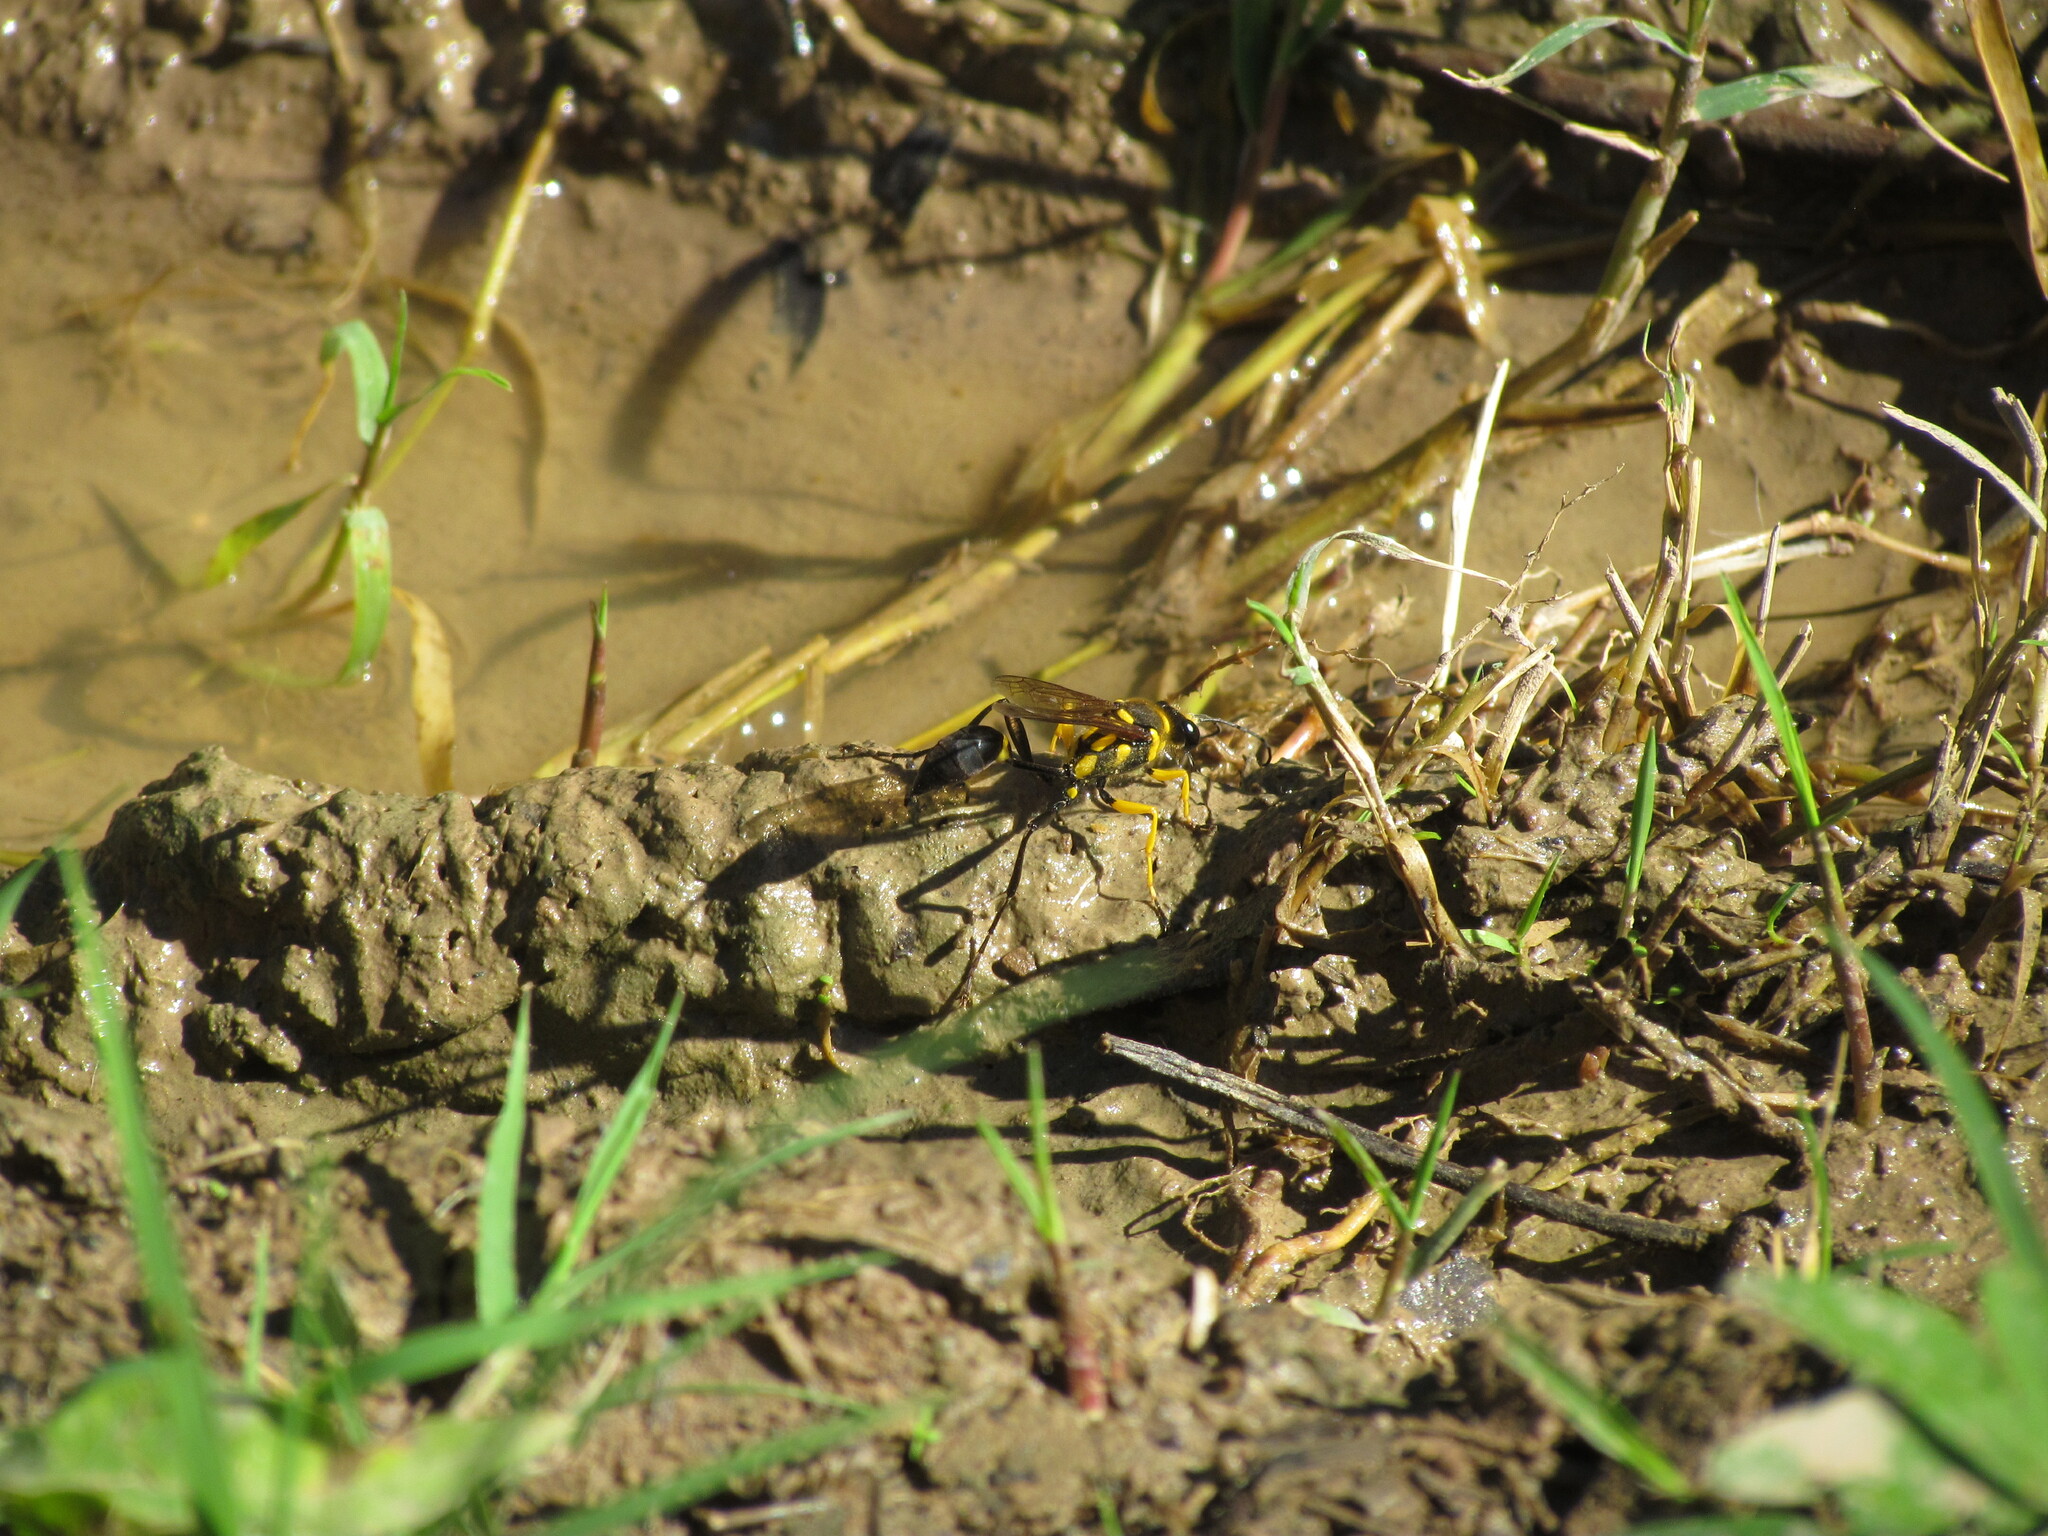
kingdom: Animalia
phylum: Arthropoda
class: Insecta
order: Hymenoptera
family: Sphecidae
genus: Sceliphron
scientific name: Sceliphron fistularium
